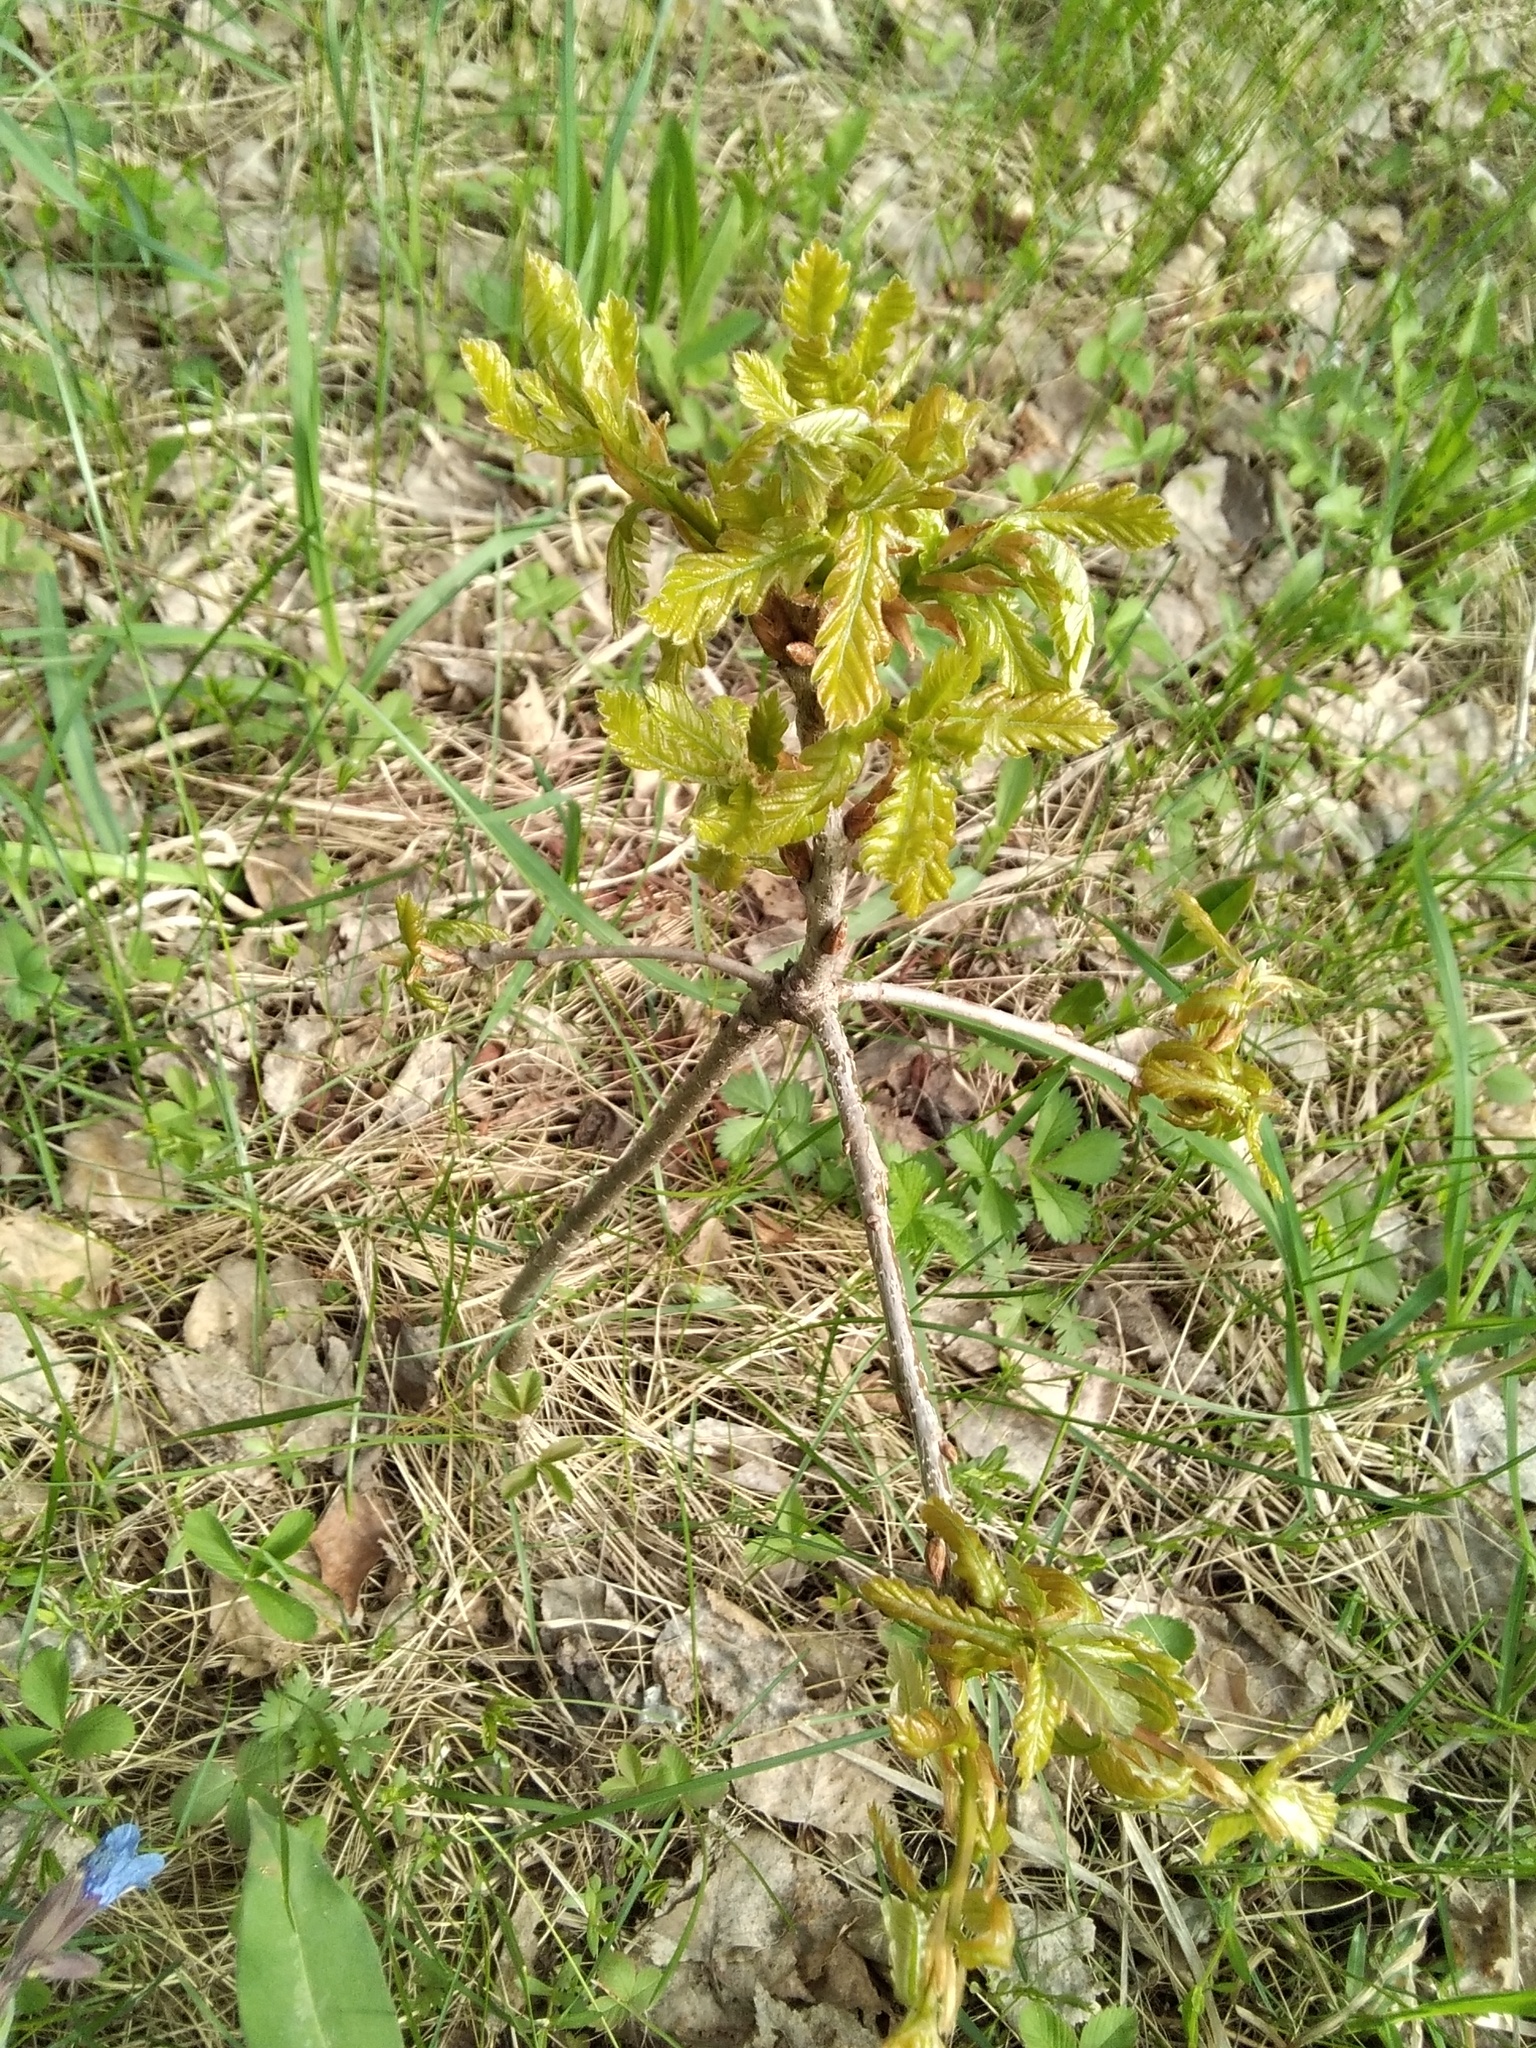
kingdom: Plantae
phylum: Tracheophyta
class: Magnoliopsida
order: Fagales
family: Fagaceae
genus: Quercus
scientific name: Quercus robur
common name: Pedunculate oak
